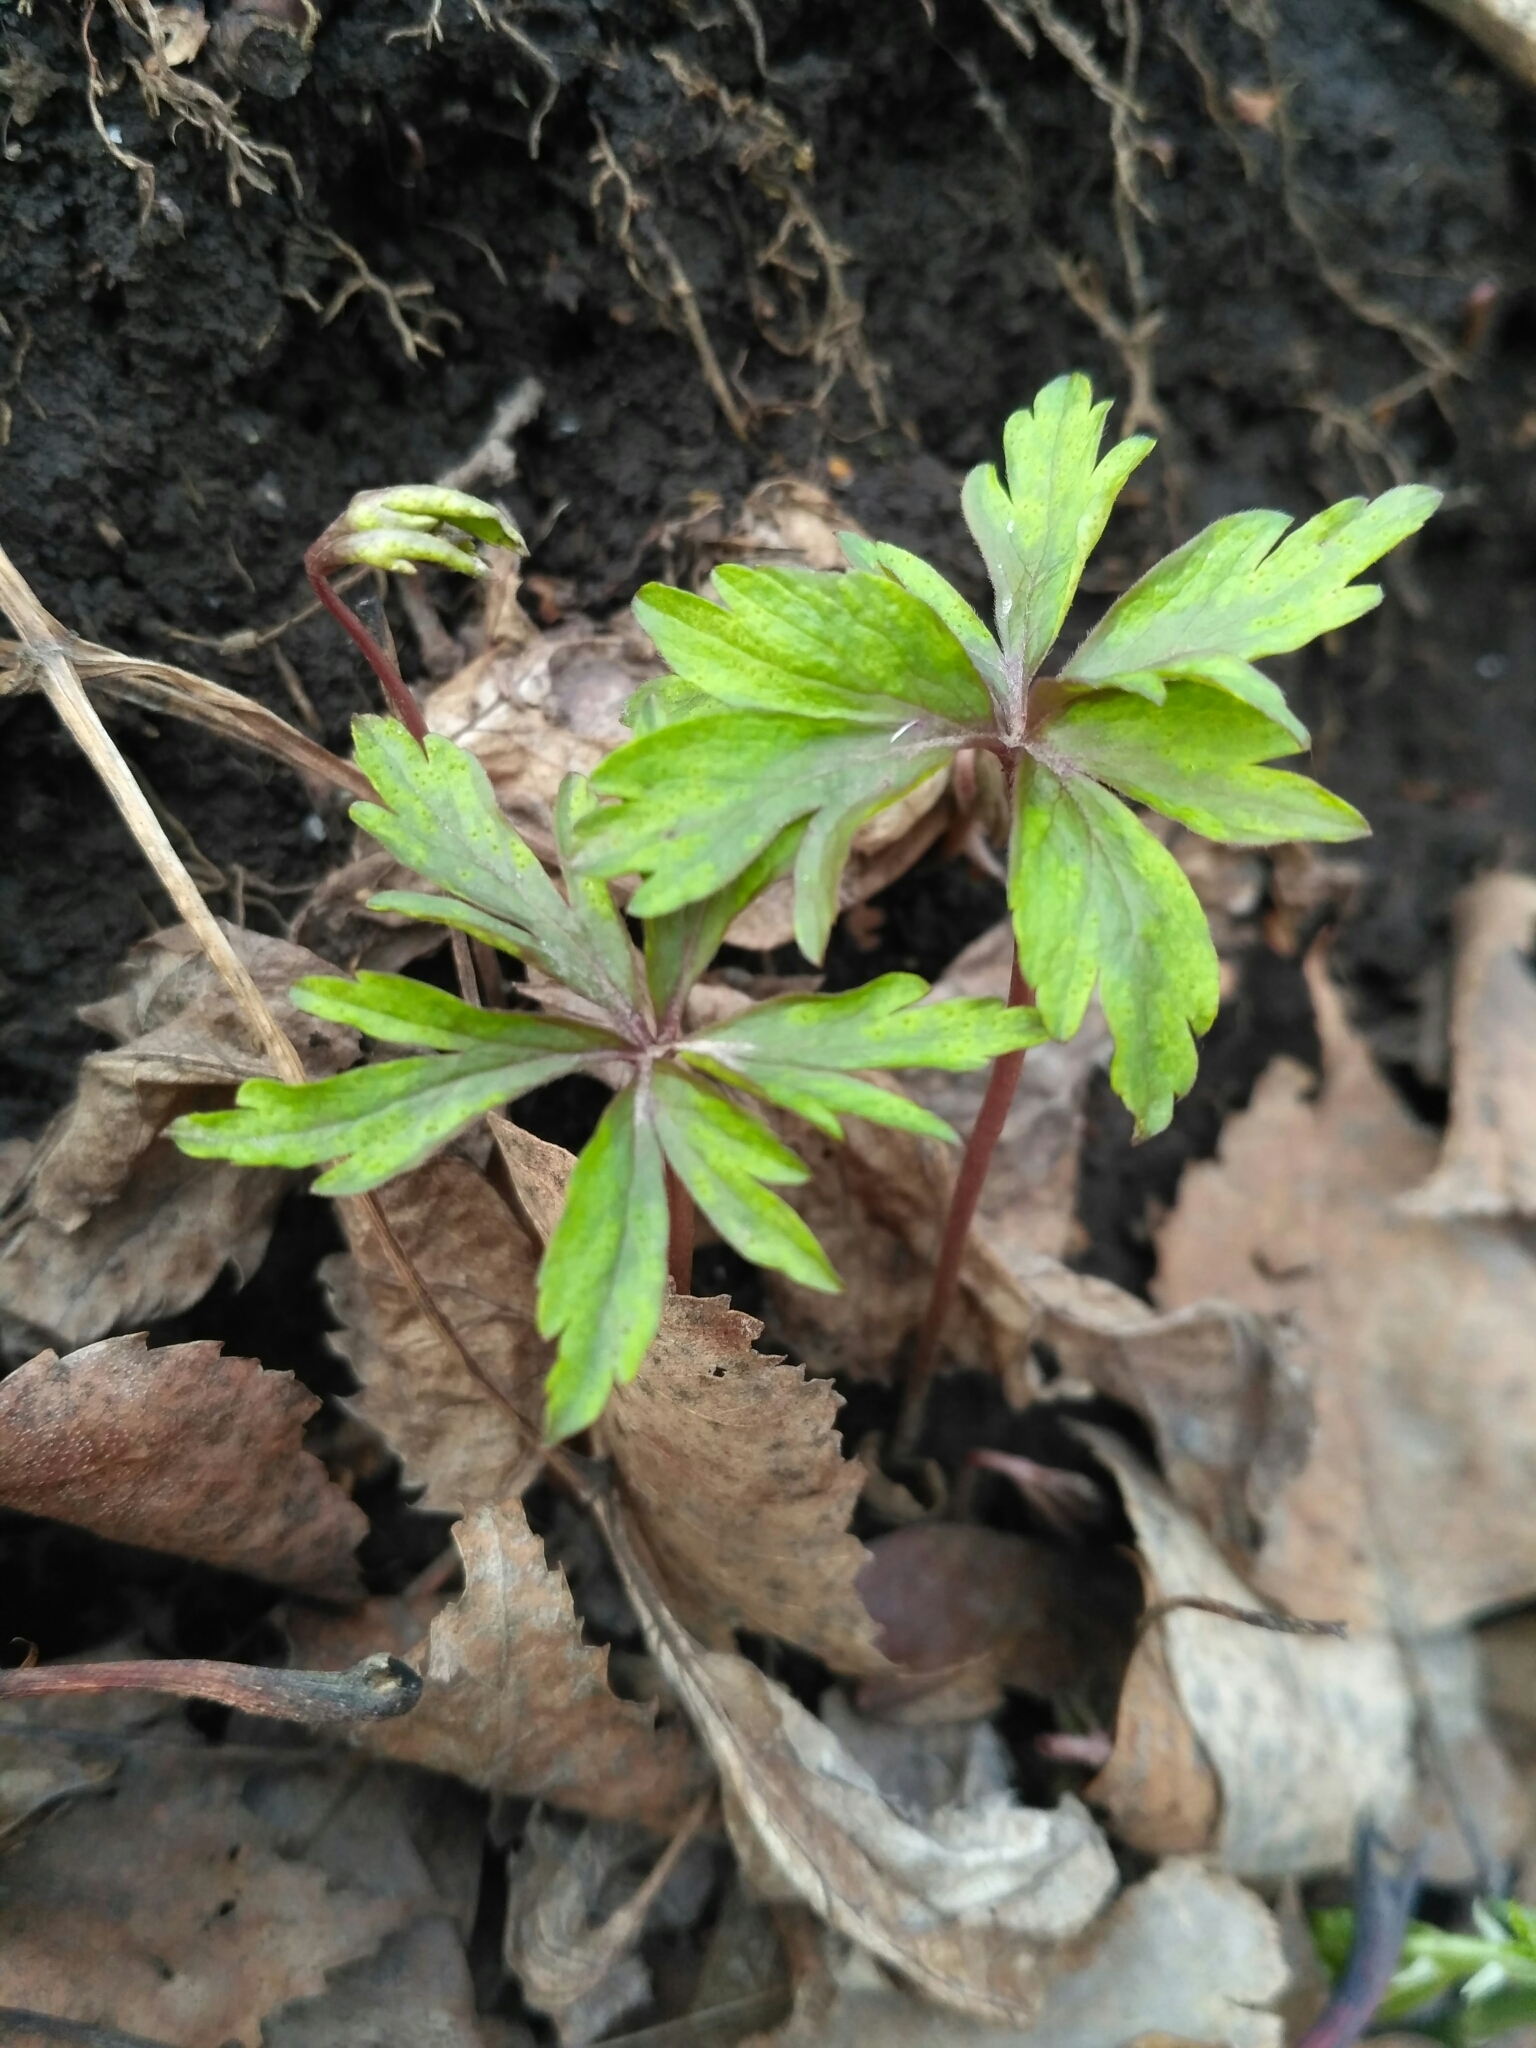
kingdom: Plantae
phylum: Tracheophyta
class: Magnoliopsida
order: Ranunculales
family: Ranunculaceae
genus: Anemone
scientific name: Anemone ranunculoides
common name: Yellow anemone
